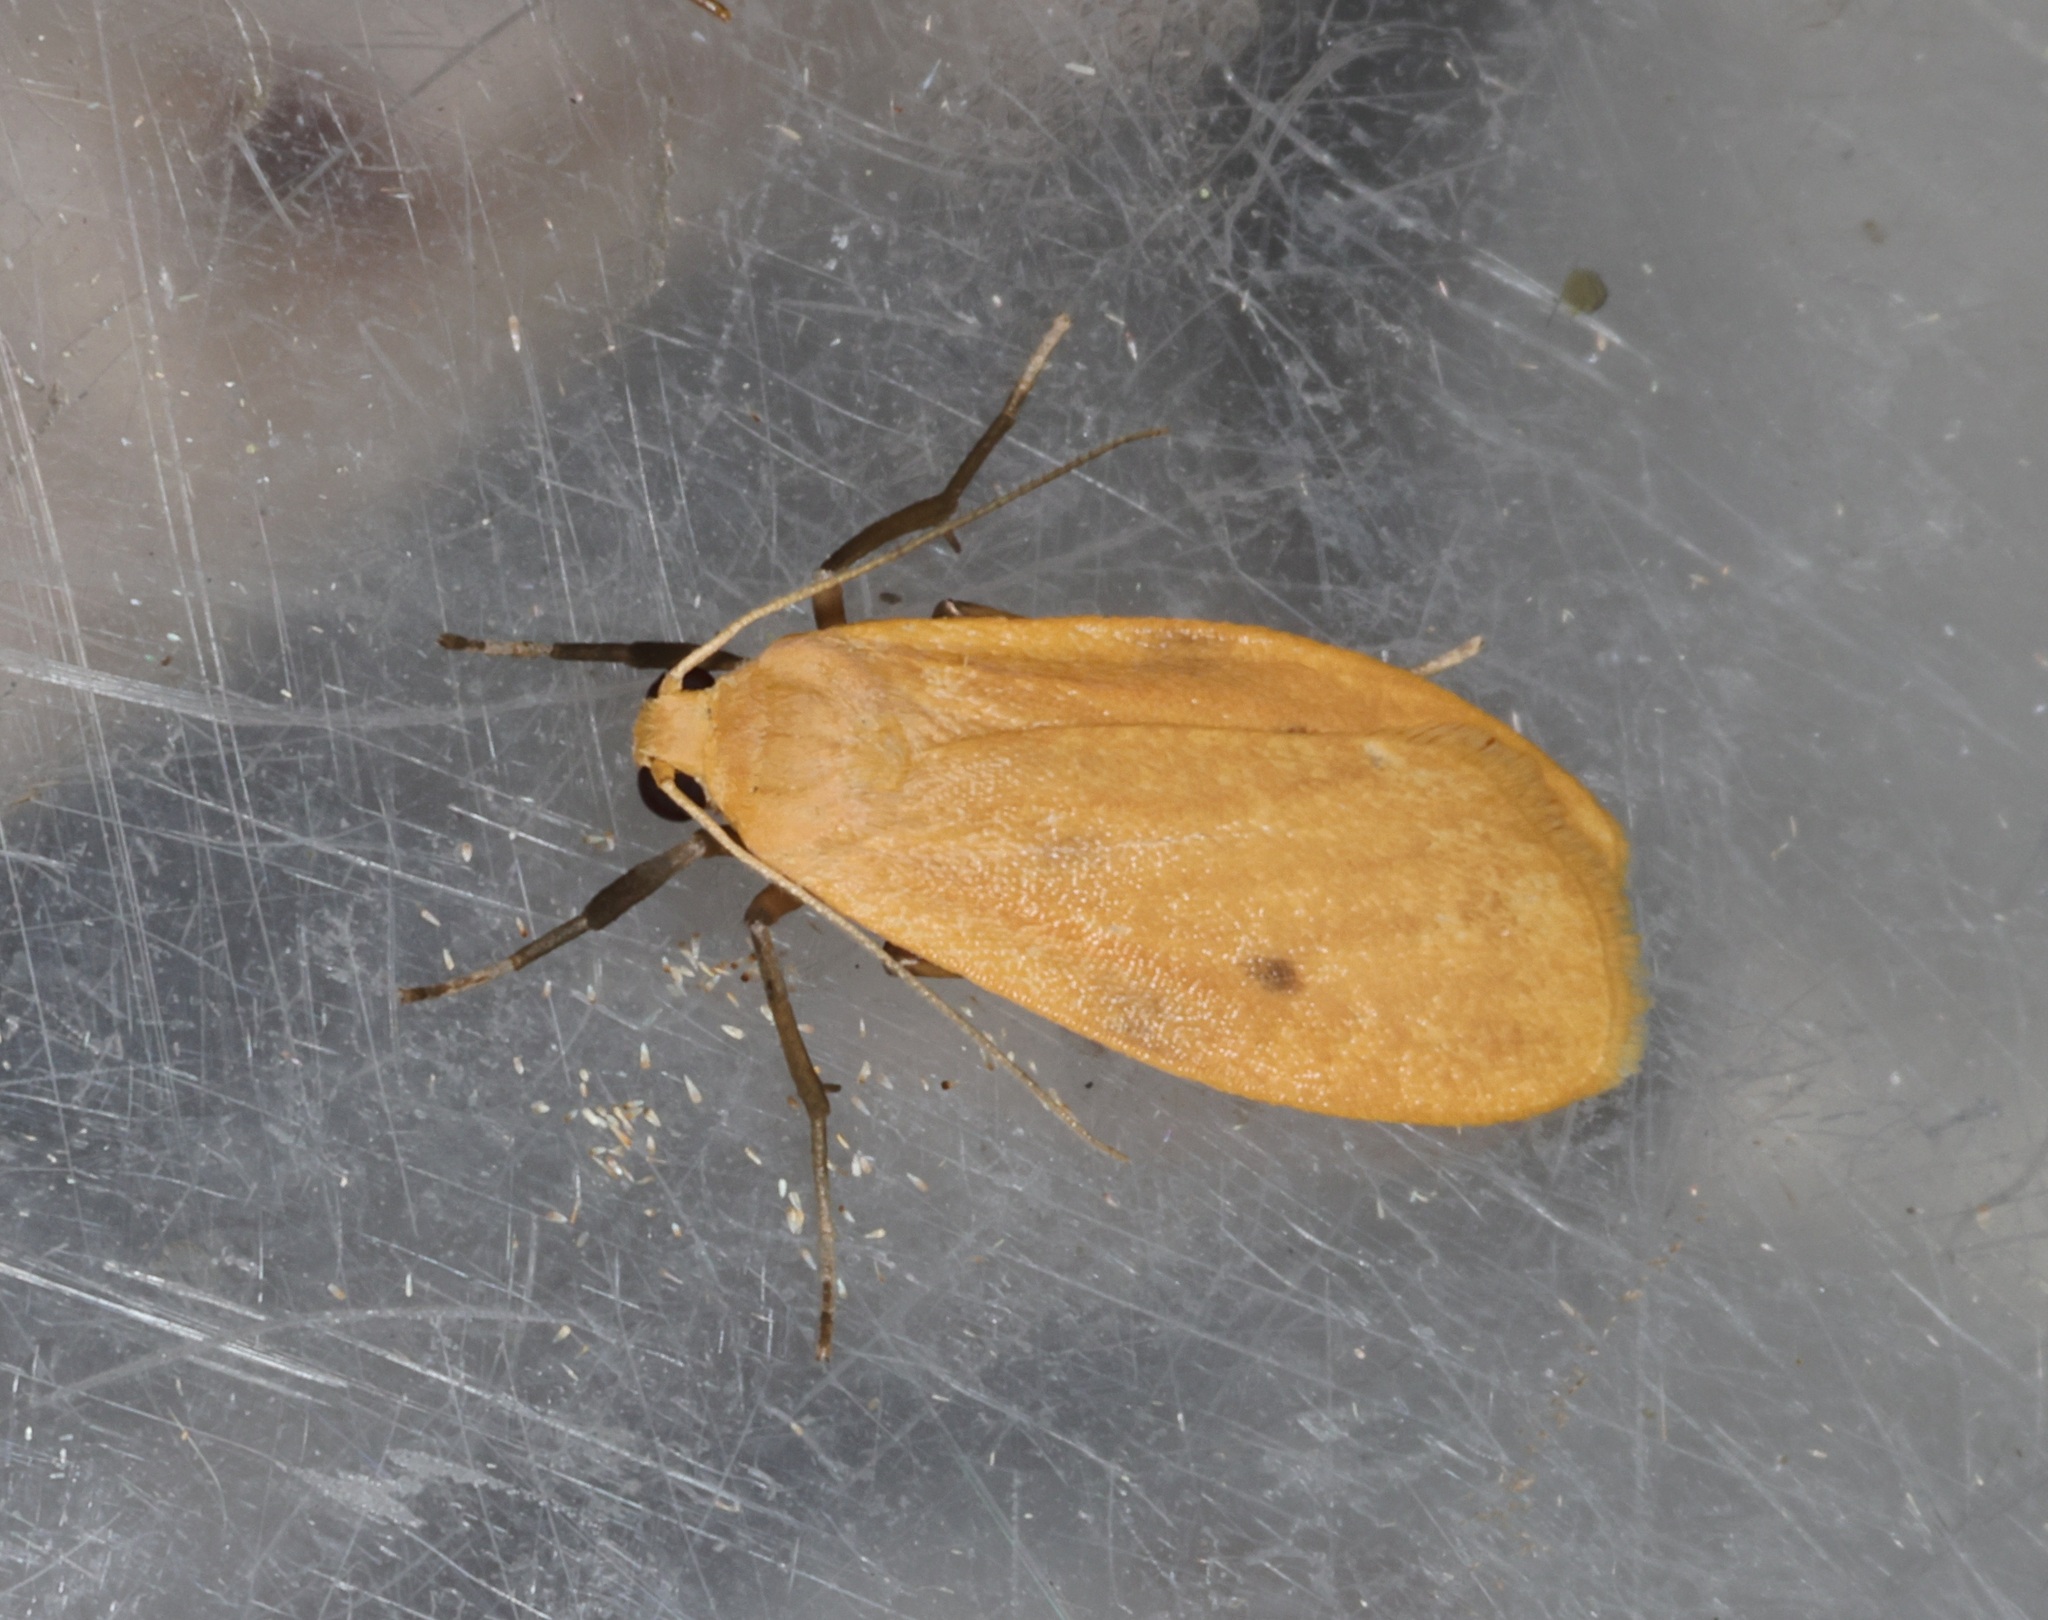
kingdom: Animalia
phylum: Arthropoda
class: Insecta
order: Lepidoptera
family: Erebidae
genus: Microlithosia
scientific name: Microlithosia shaowuica
